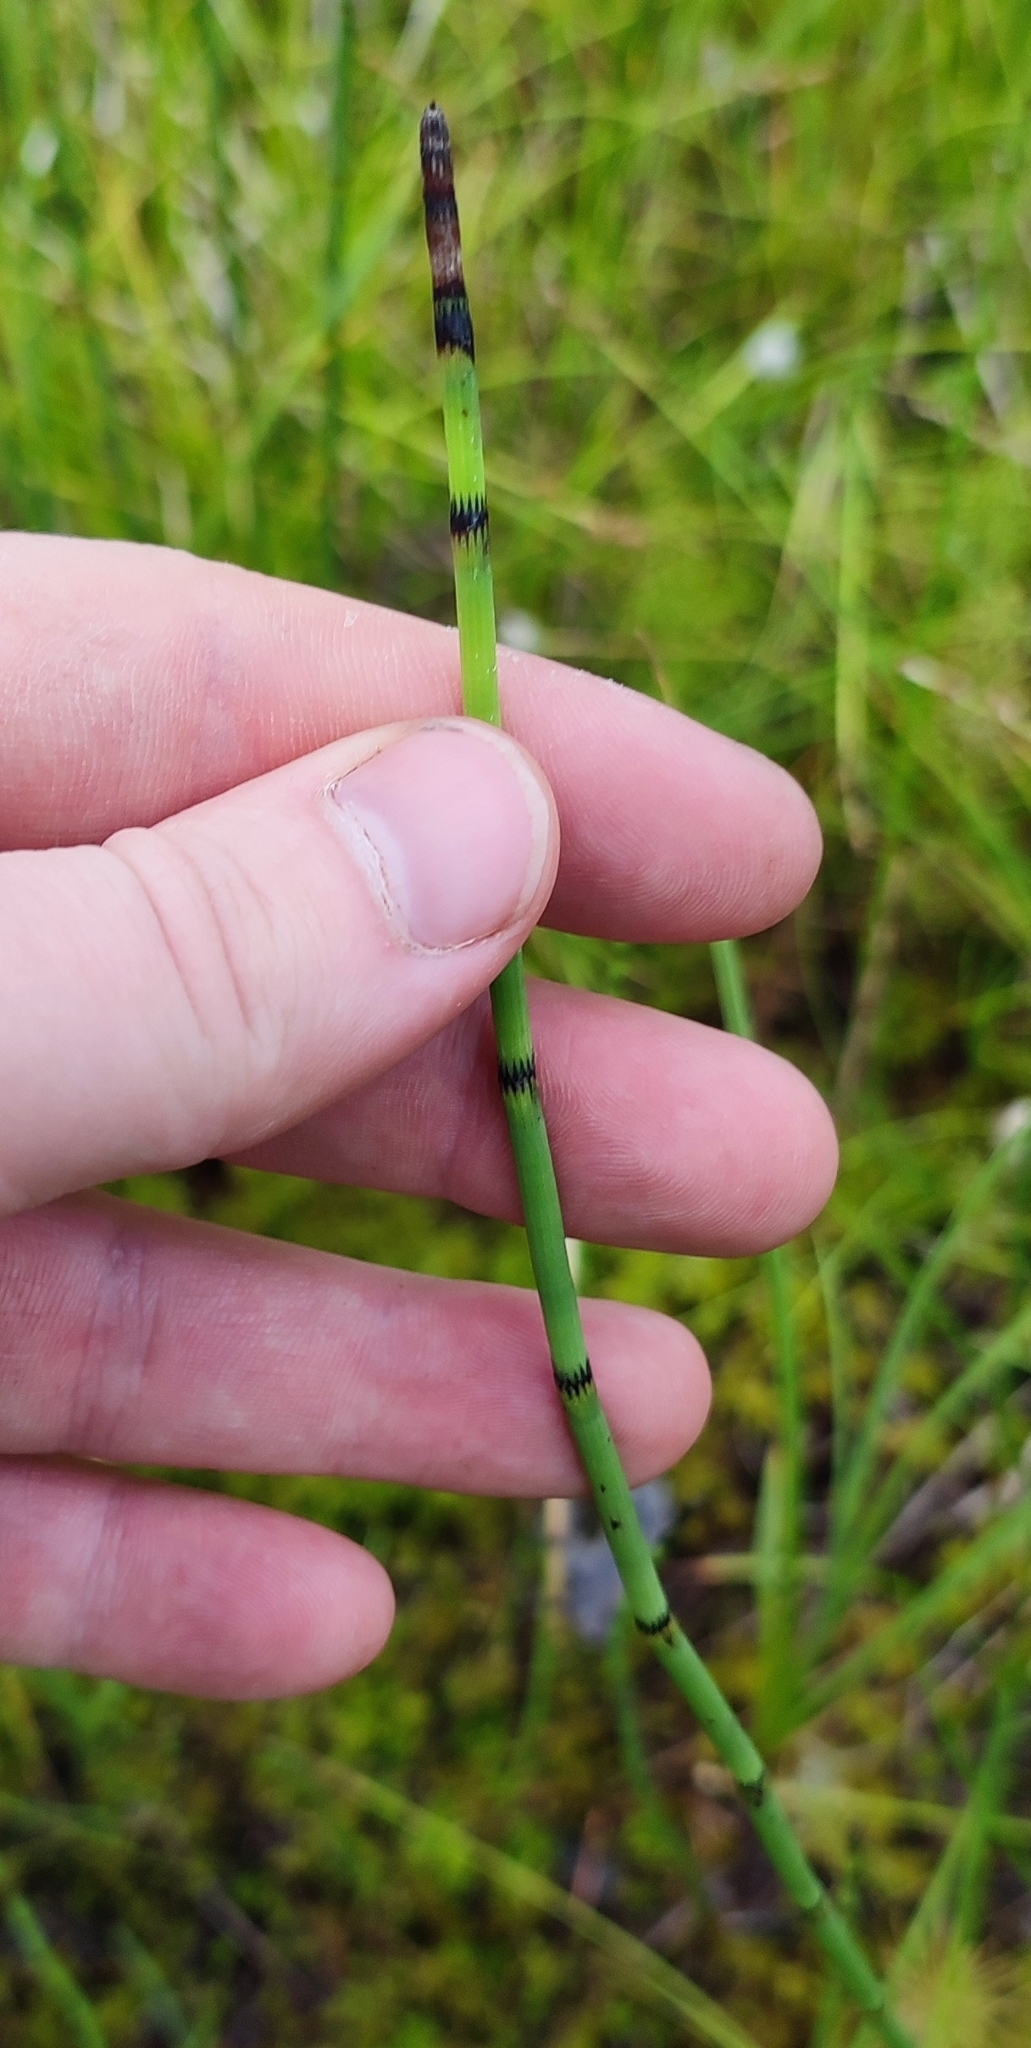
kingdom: Plantae
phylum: Tracheophyta
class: Polypodiopsida
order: Equisetales
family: Equisetaceae
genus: Equisetum
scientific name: Equisetum fluviatile
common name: Water horsetail
